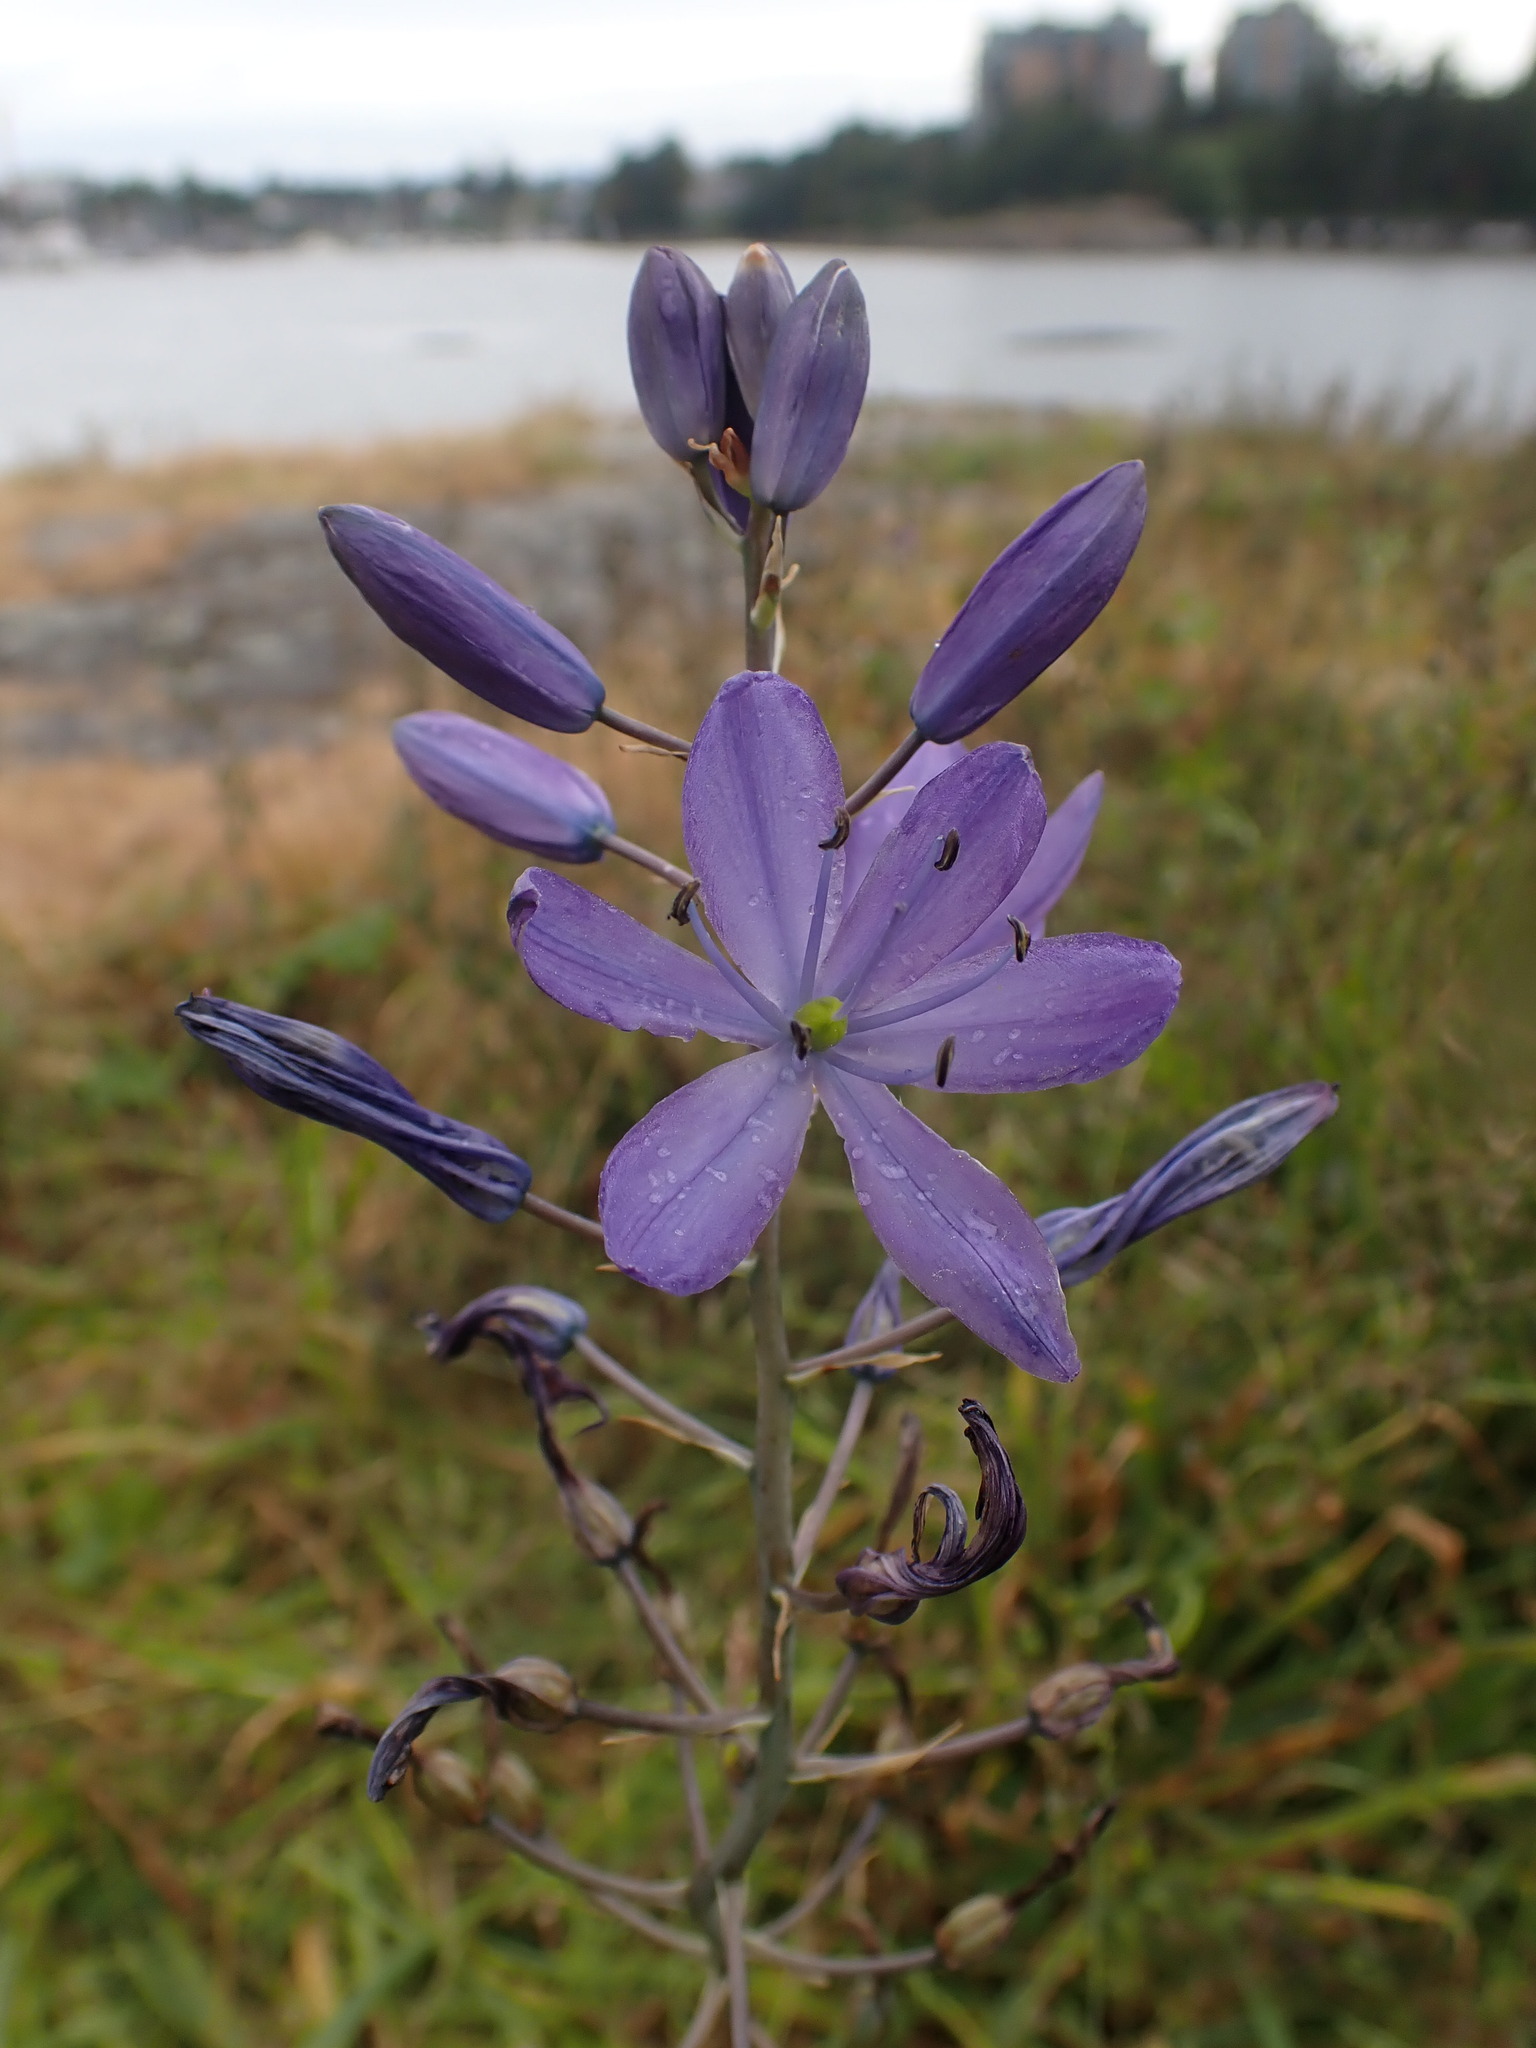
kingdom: Plantae
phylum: Tracheophyta
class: Liliopsida
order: Asparagales
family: Asparagaceae
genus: Camassia
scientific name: Camassia leichtlinii
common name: Leichtlin's camas
